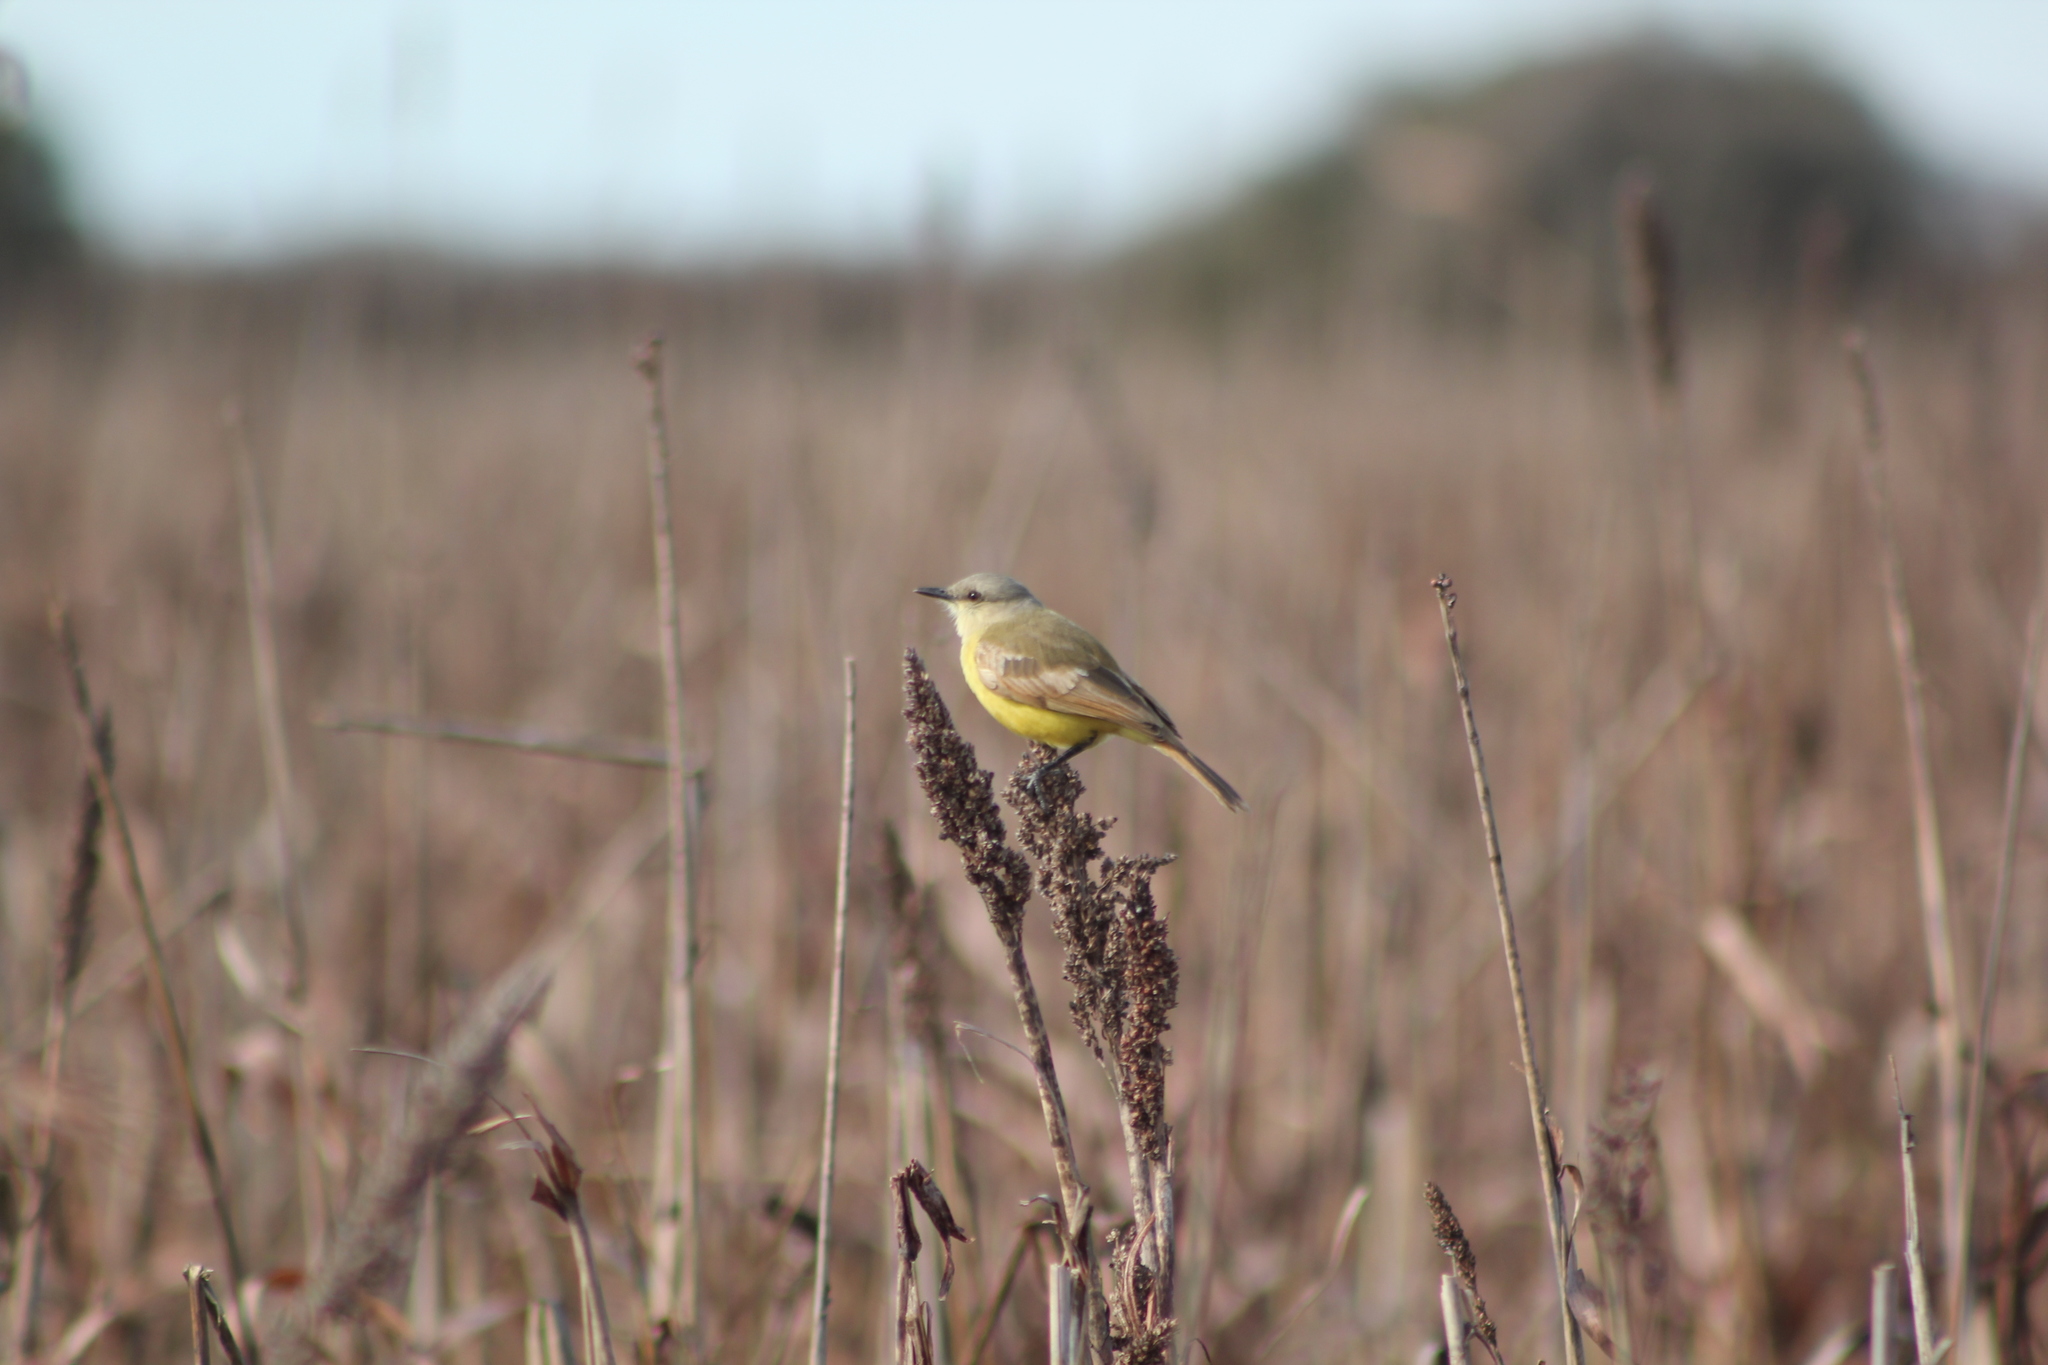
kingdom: Animalia
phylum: Chordata
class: Aves
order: Passeriformes
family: Tyrannidae
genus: Machetornis
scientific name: Machetornis rixosa
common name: Cattle tyrant
